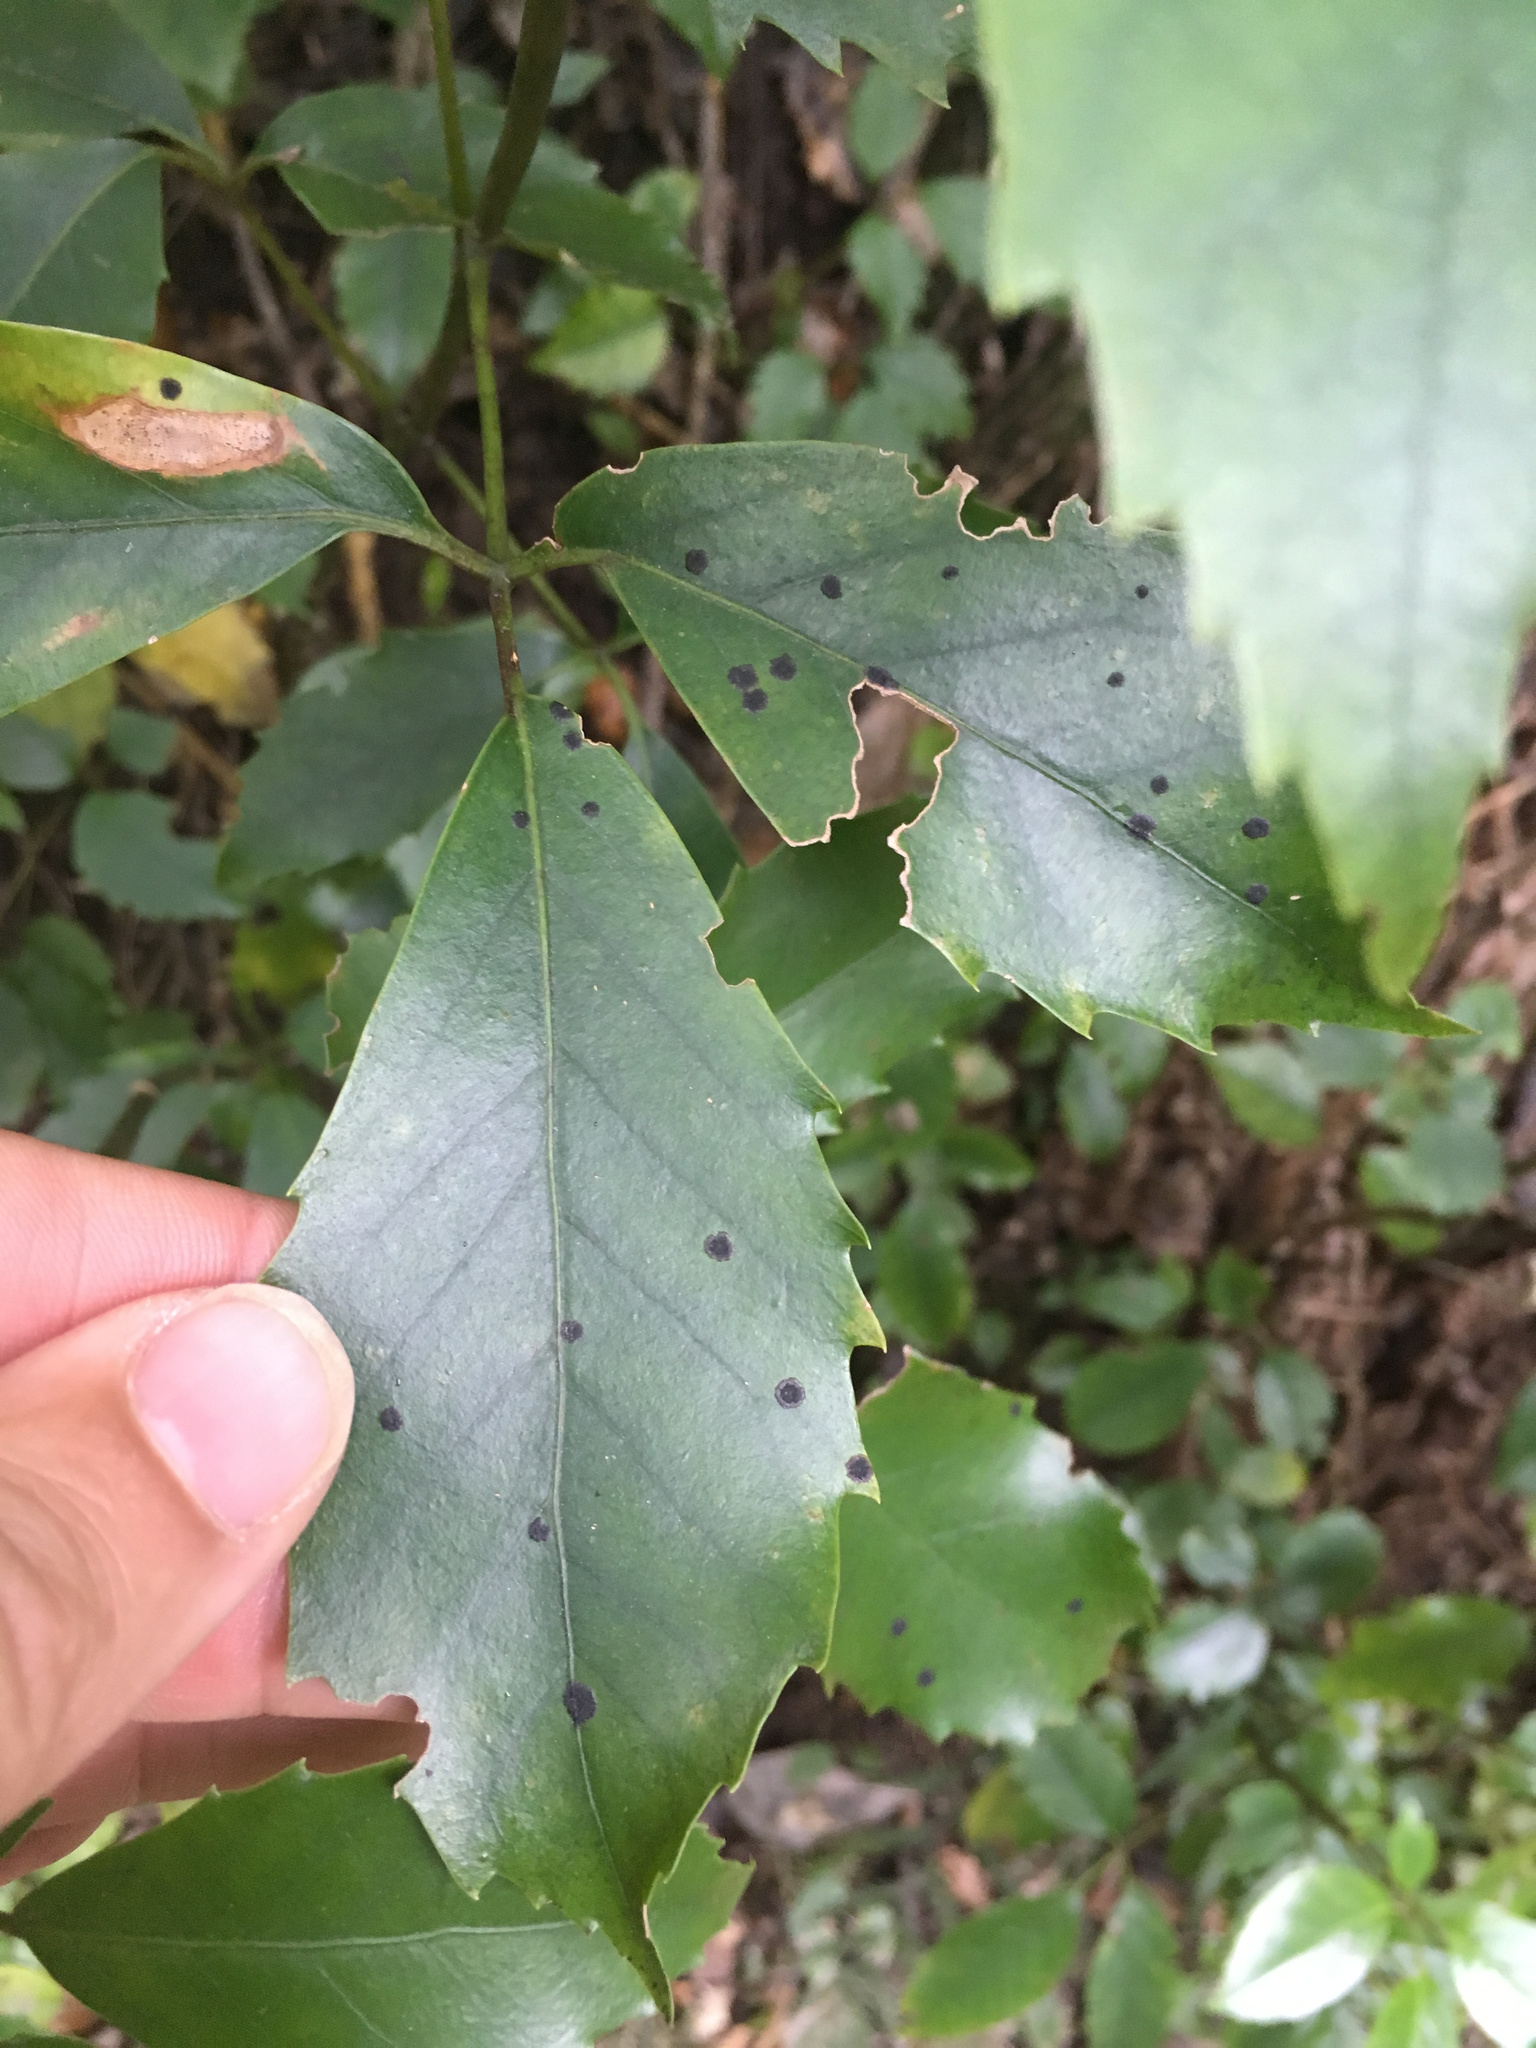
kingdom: Fungi
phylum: Ascomycota
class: Dothideomycetes
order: Asterinales
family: Asterinaceae
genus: Placosoma
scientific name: Placosoma nothopanacis
